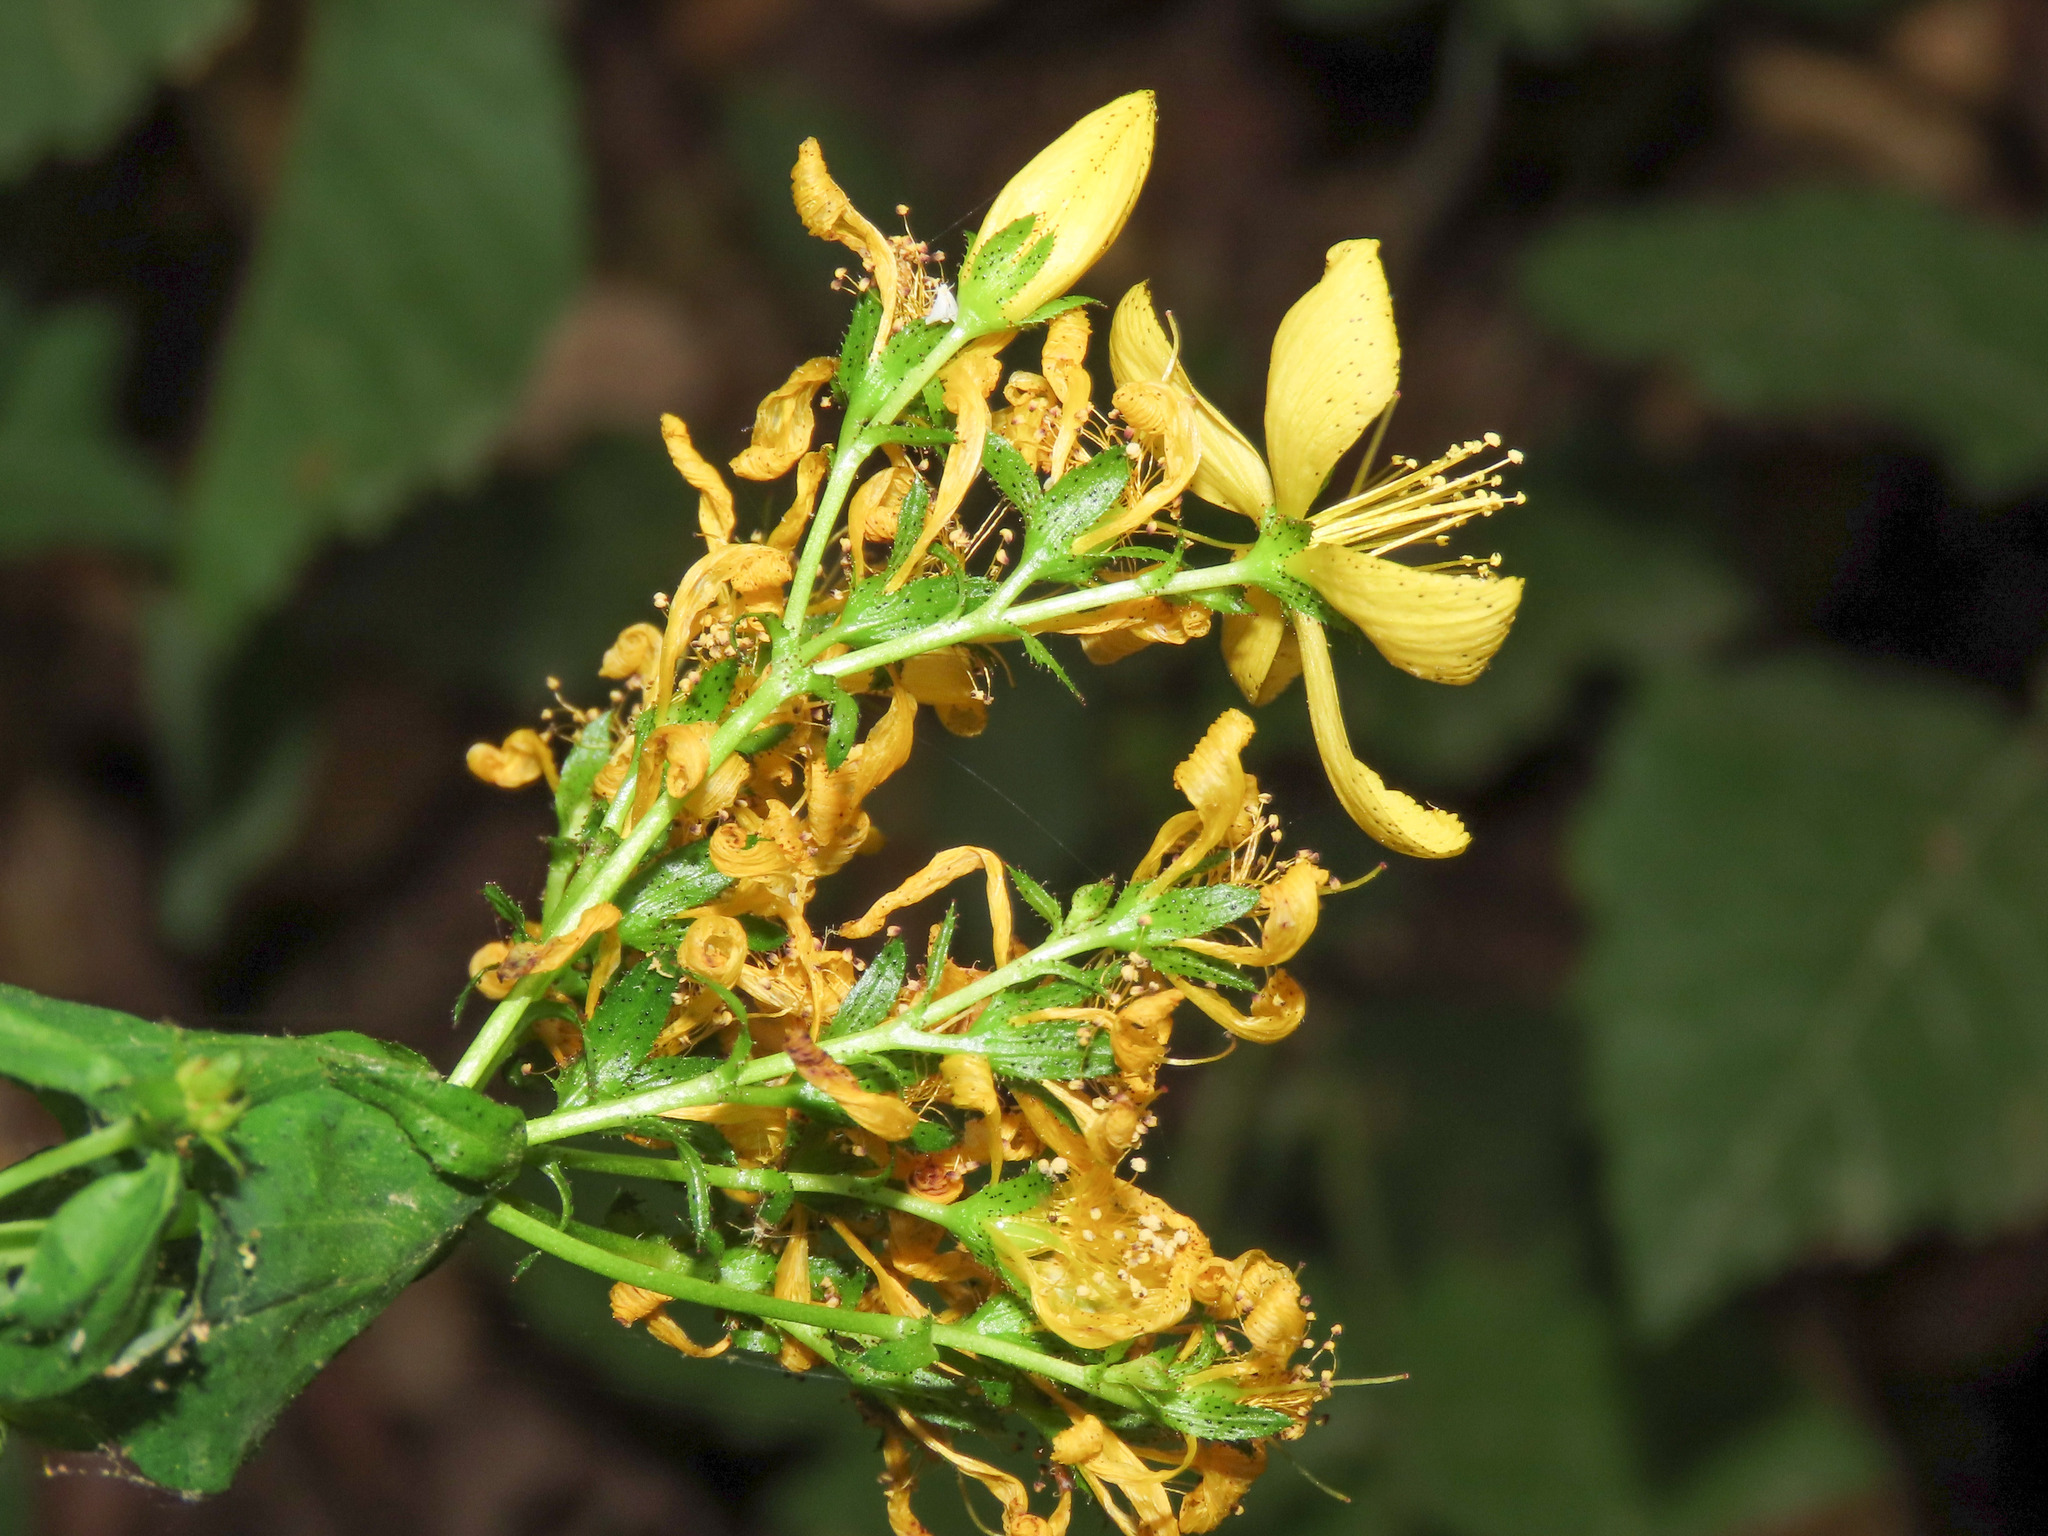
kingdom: Plantae
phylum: Tracheophyta
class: Magnoliopsida
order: Malpighiales
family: Hypericaceae
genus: Hypericum
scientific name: Hypericum perfoliatum
